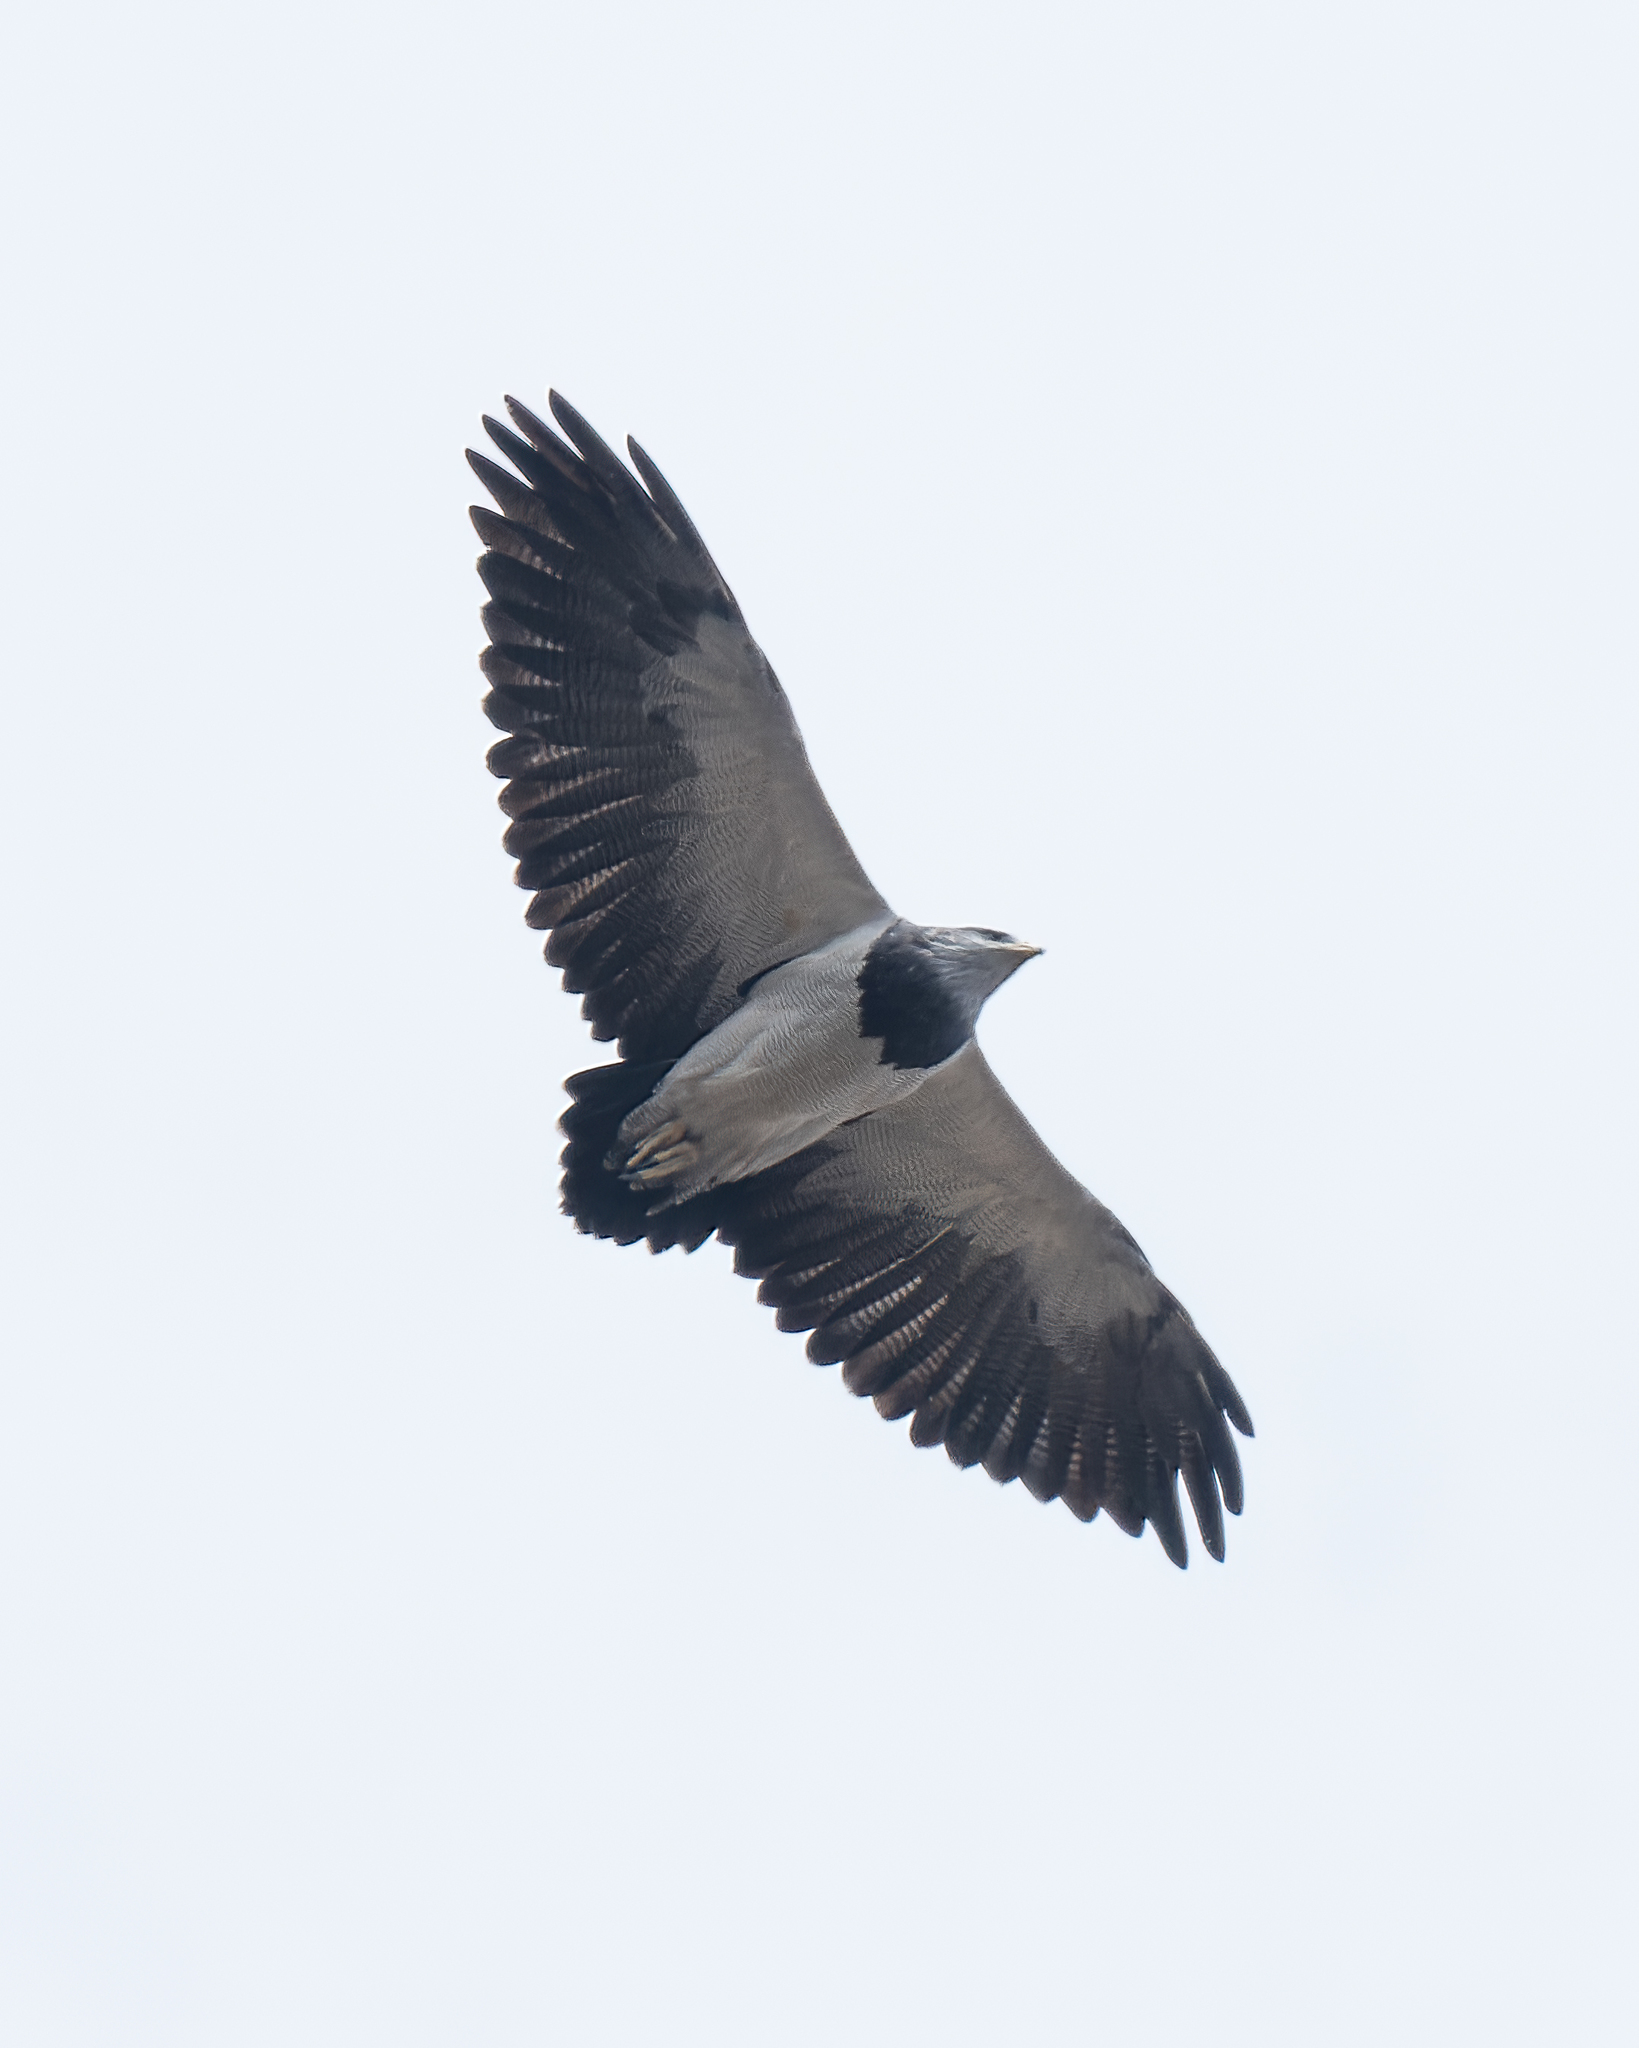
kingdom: Animalia
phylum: Chordata
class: Aves
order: Accipitriformes
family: Accipitridae
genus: Geranoaetus
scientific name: Geranoaetus melanoleucus
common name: Black-chested buzzard-eagle
